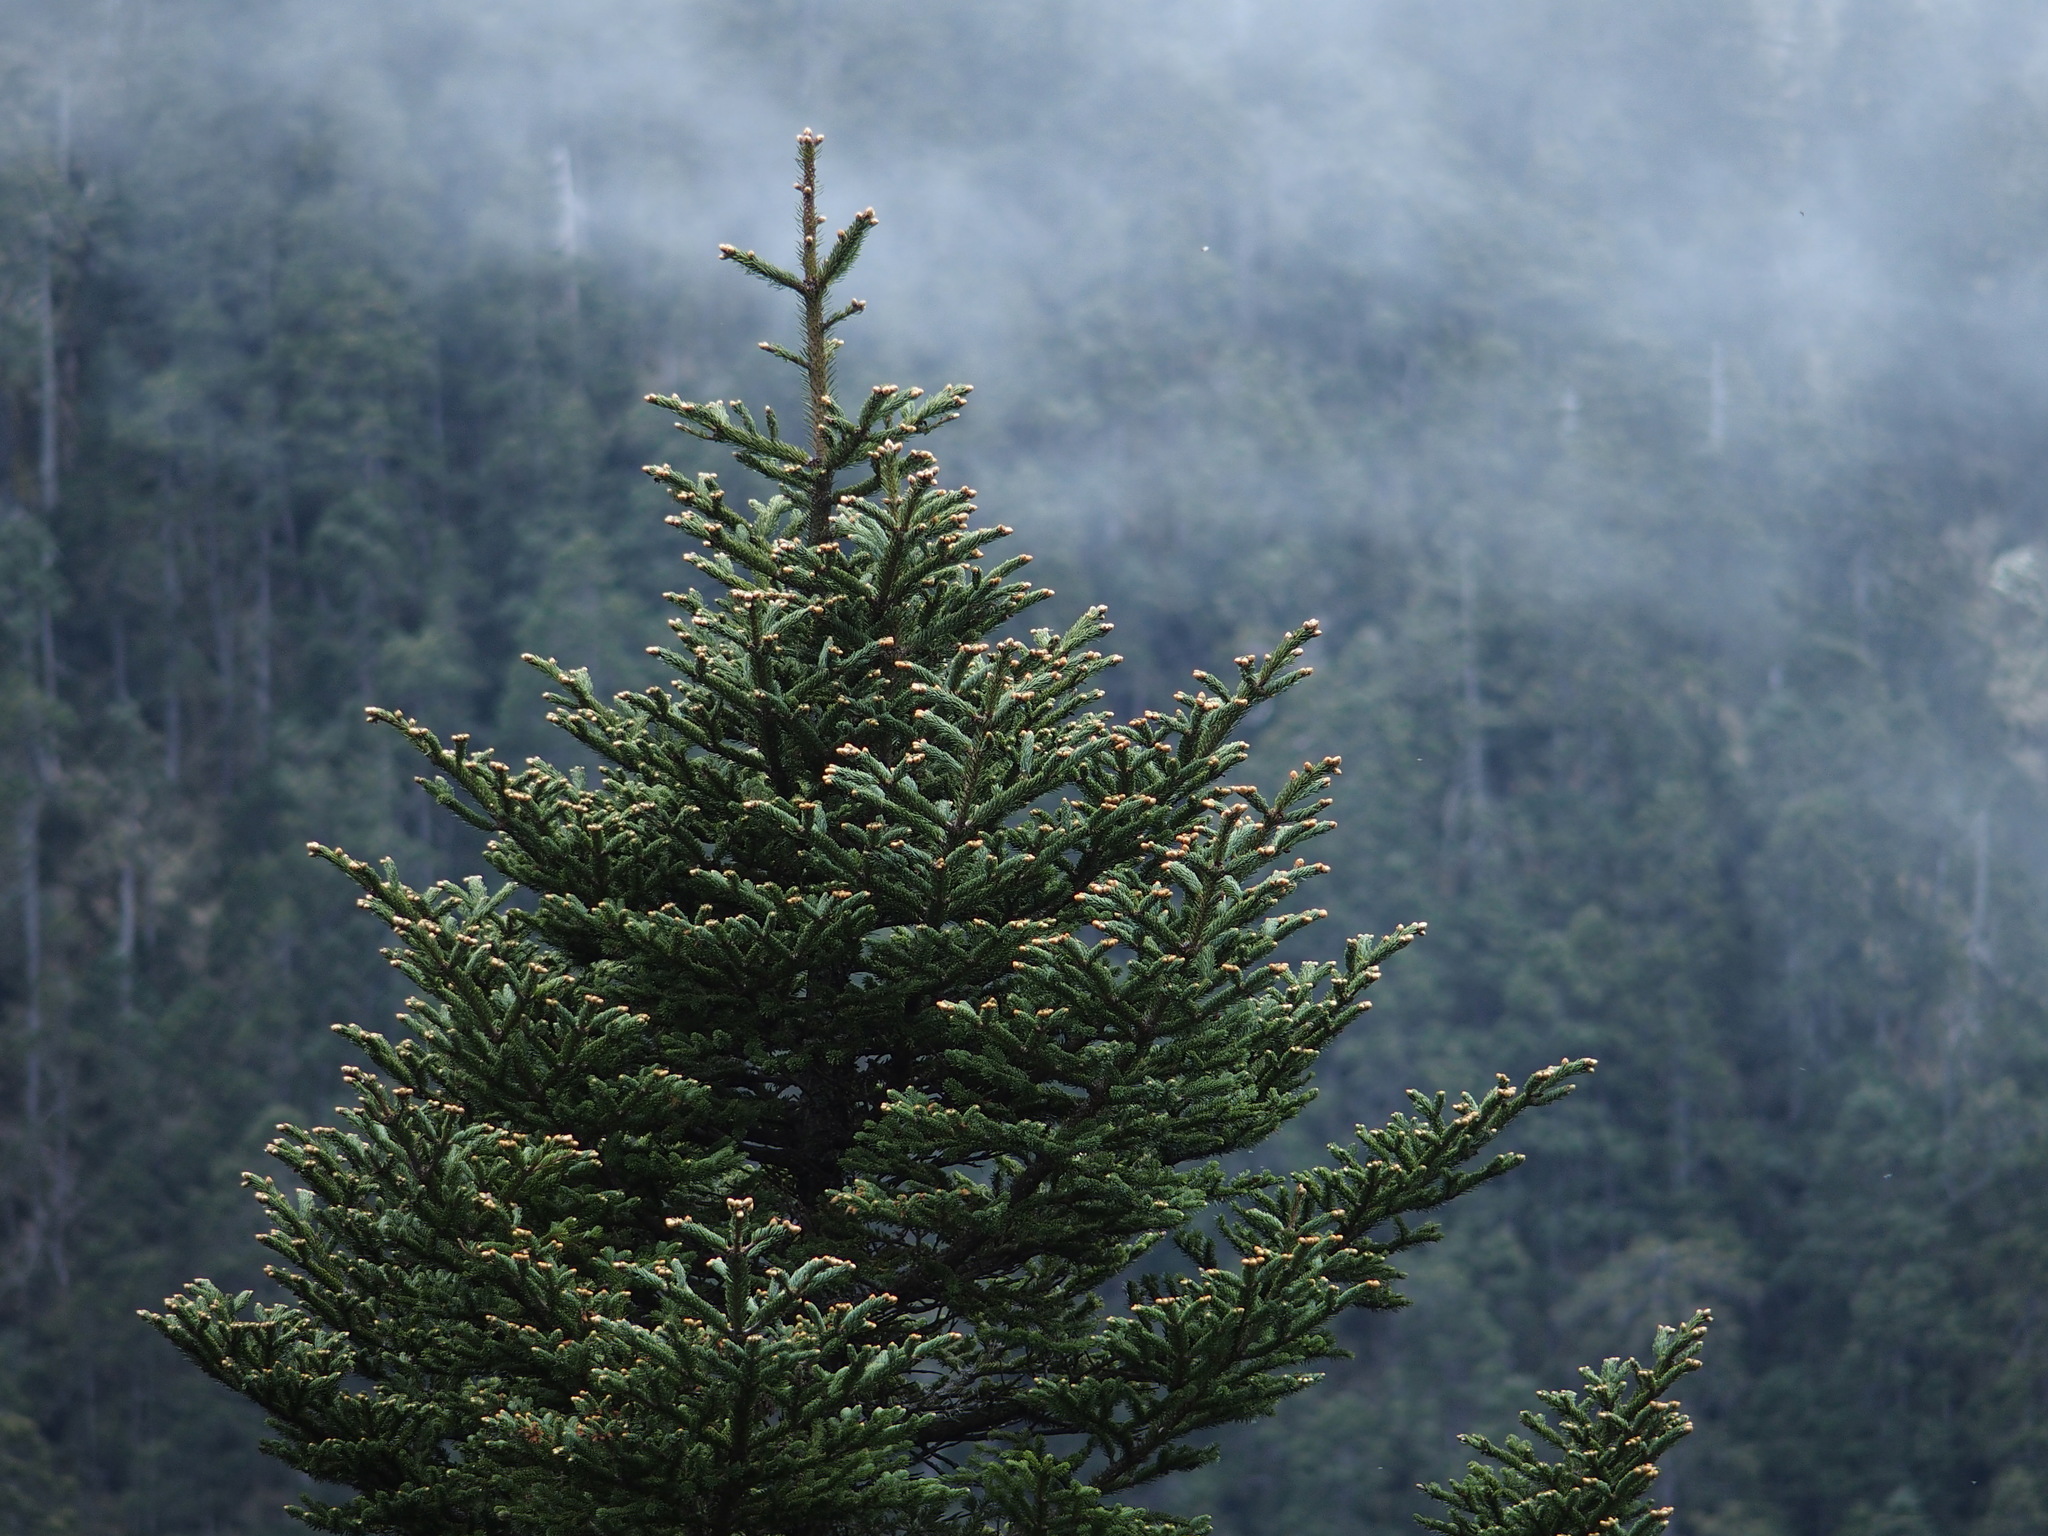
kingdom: Plantae
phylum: Tracheophyta
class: Pinopsida
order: Pinales
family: Pinaceae
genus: Abies
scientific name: Abies kawakamii
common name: Taiwan fir
